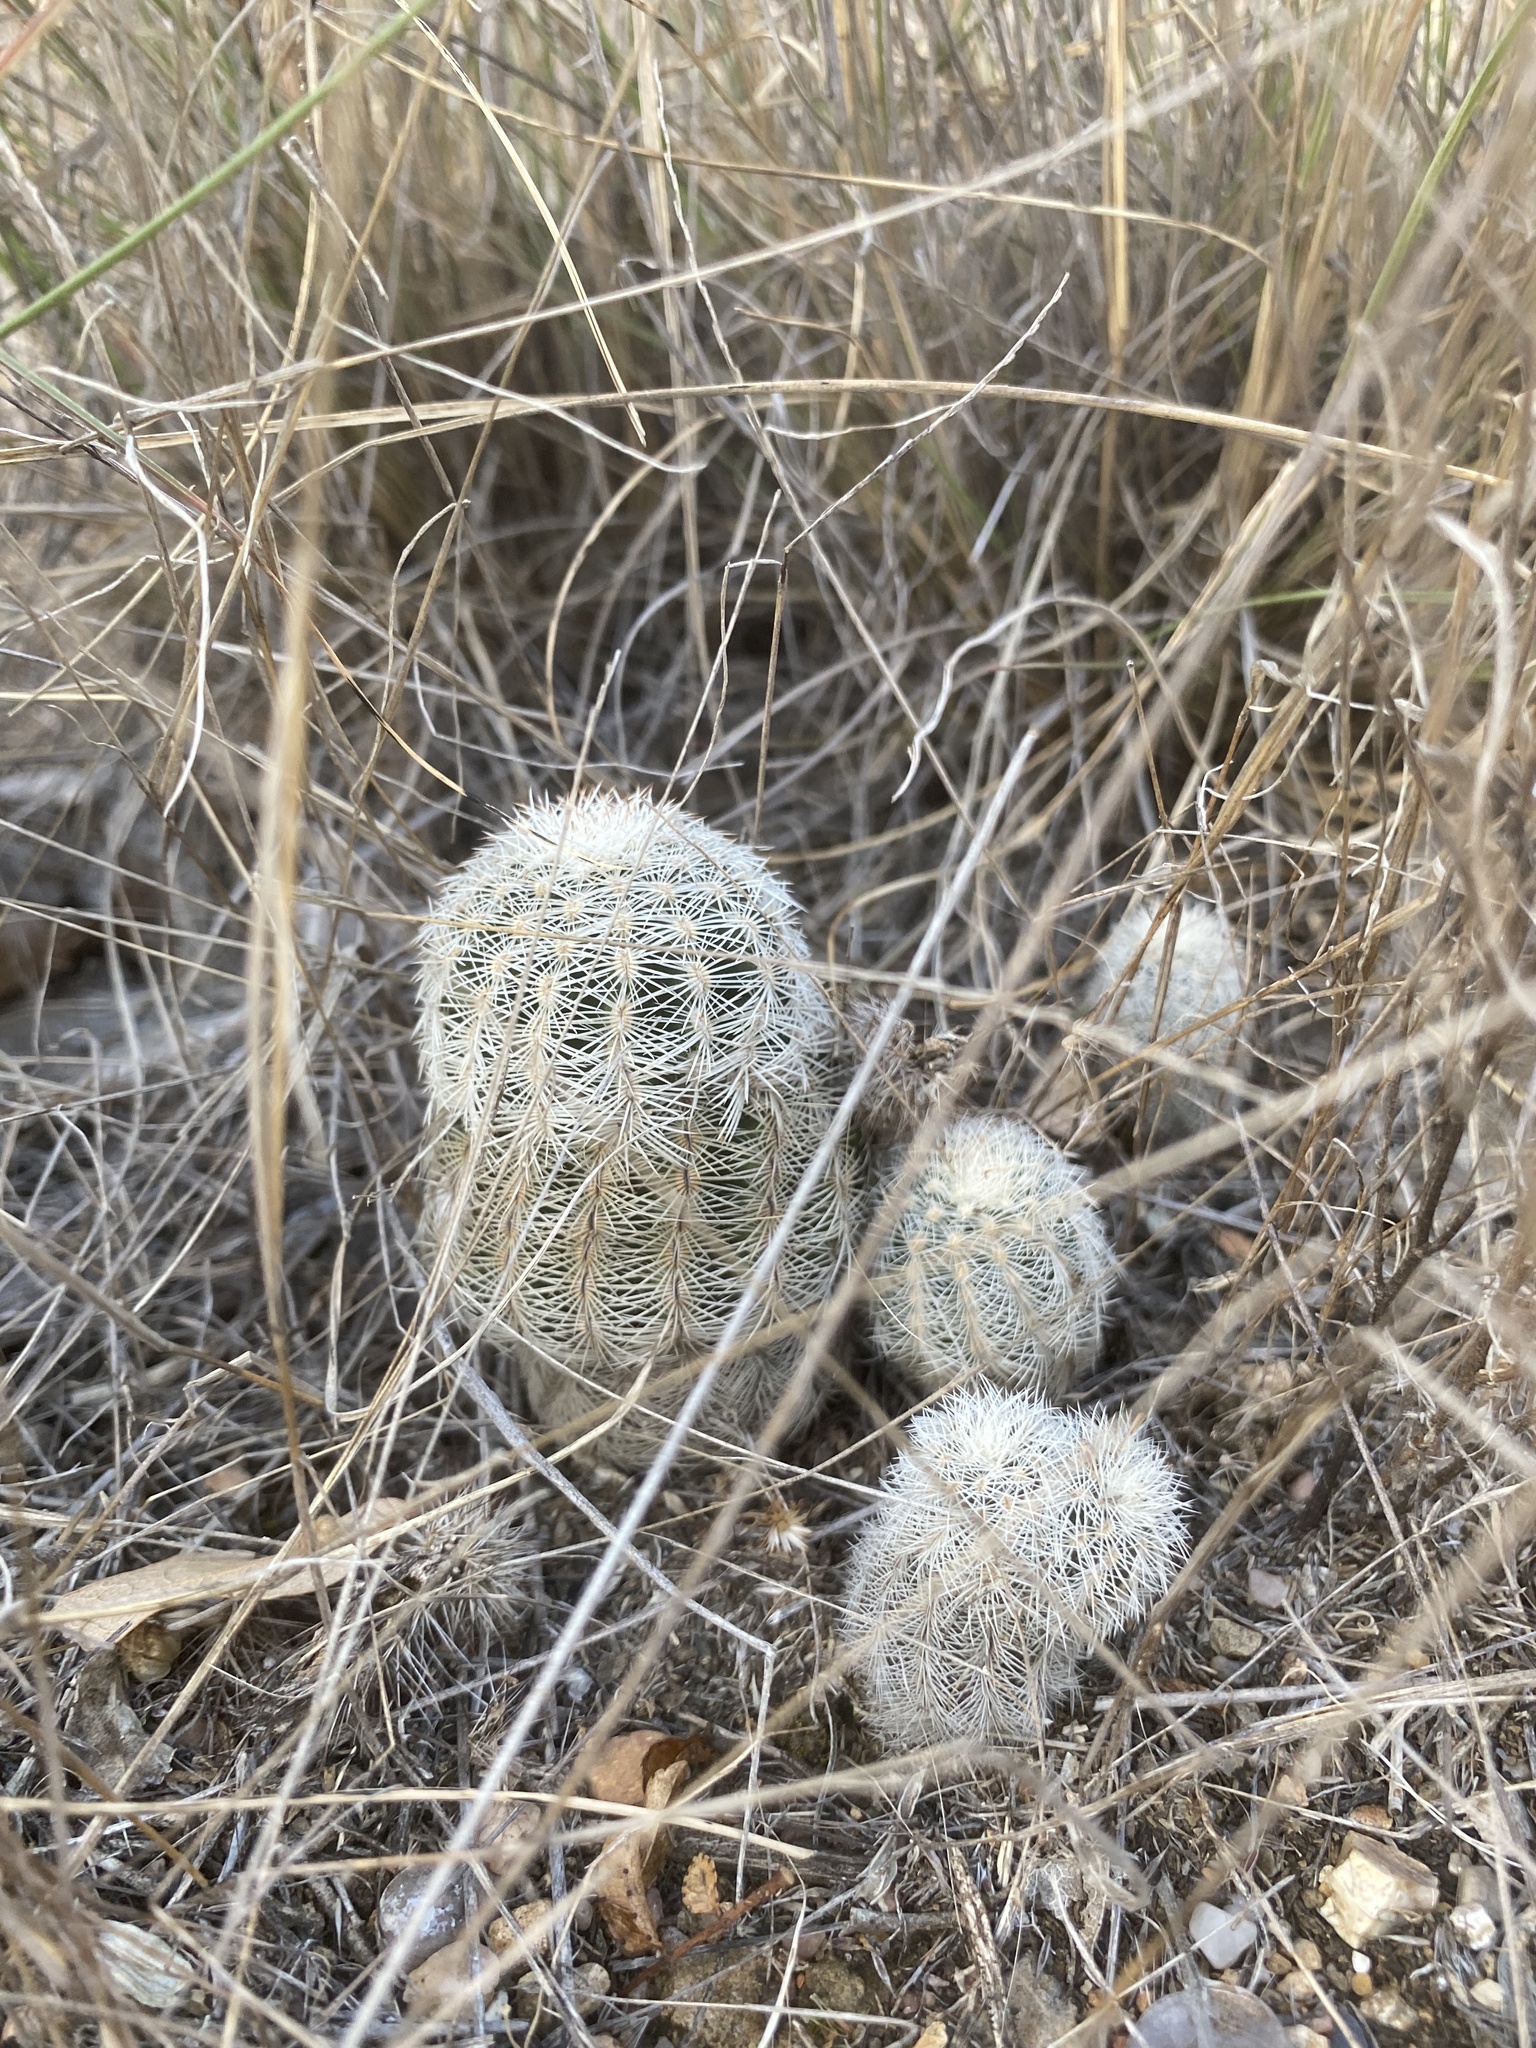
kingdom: Plantae
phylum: Tracheophyta
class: Magnoliopsida
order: Caryophyllales
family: Cactaceae
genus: Echinocereus
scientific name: Echinocereus reichenbachii
